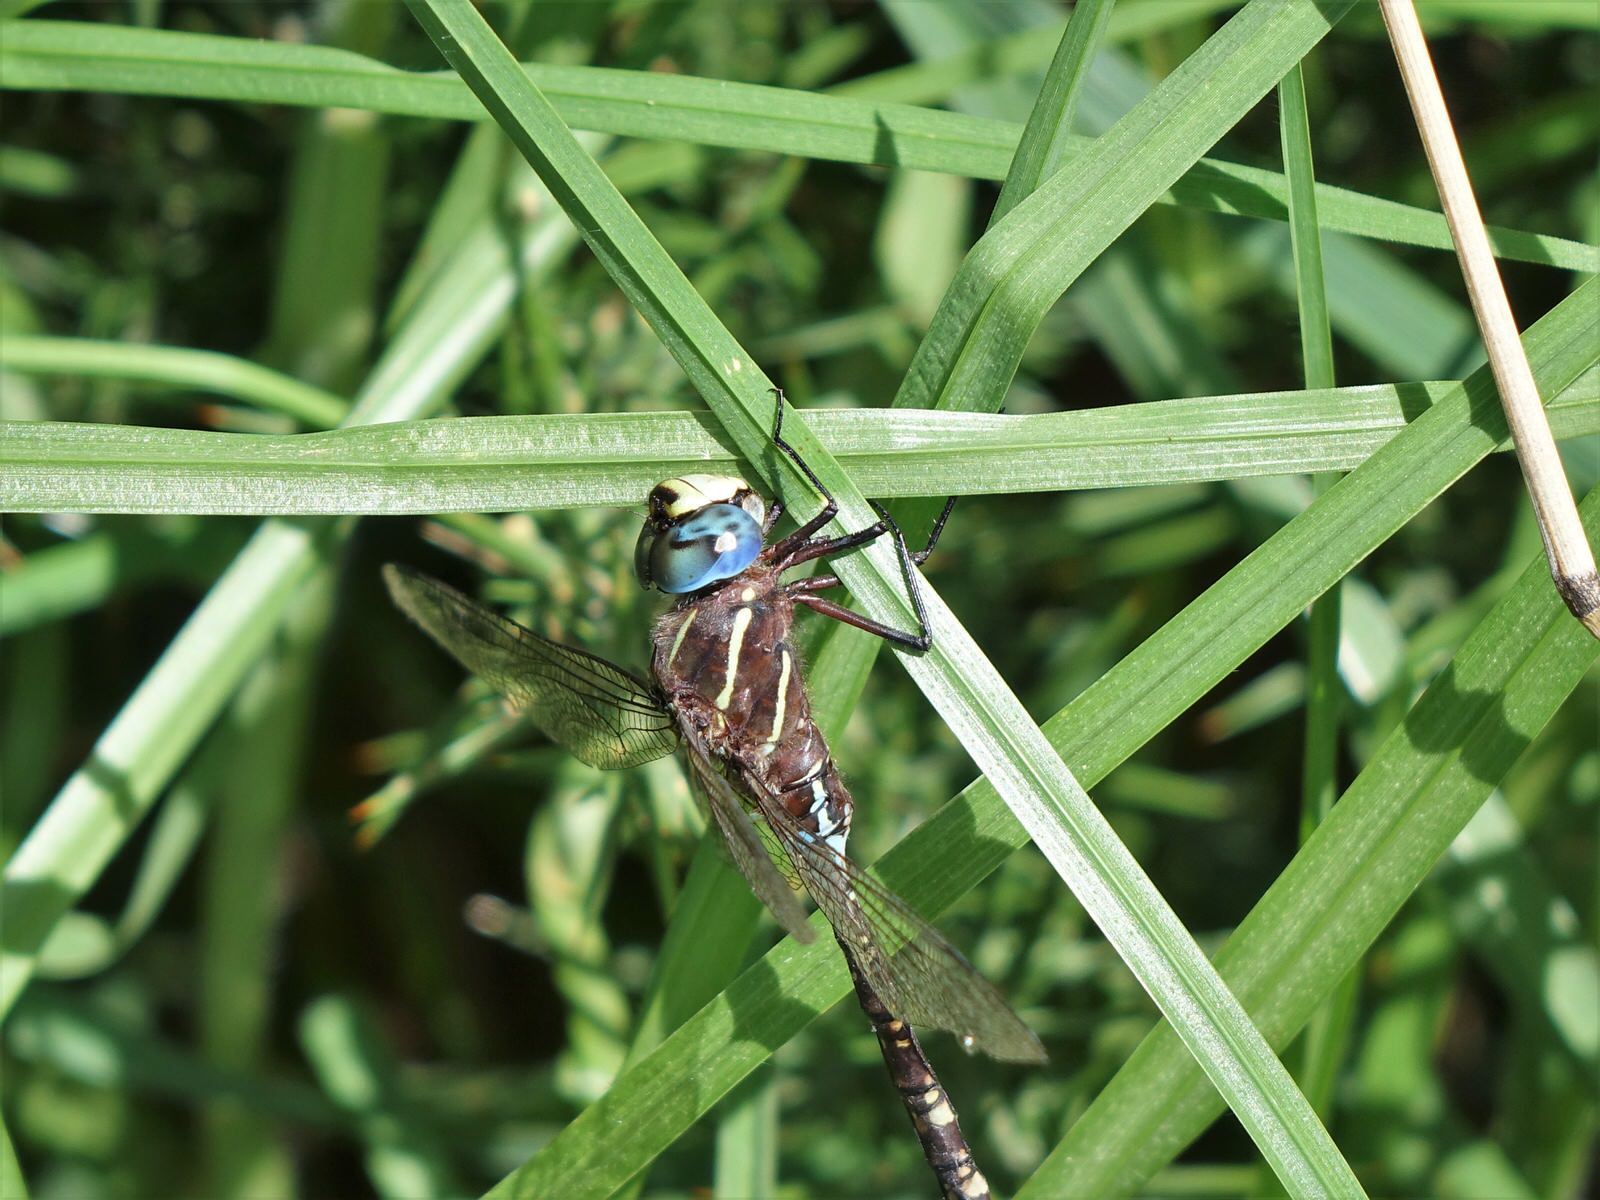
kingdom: Animalia
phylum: Arthropoda
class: Insecta
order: Odonata
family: Aeshnidae
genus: Aeshna
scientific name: Aeshna brevistyla
